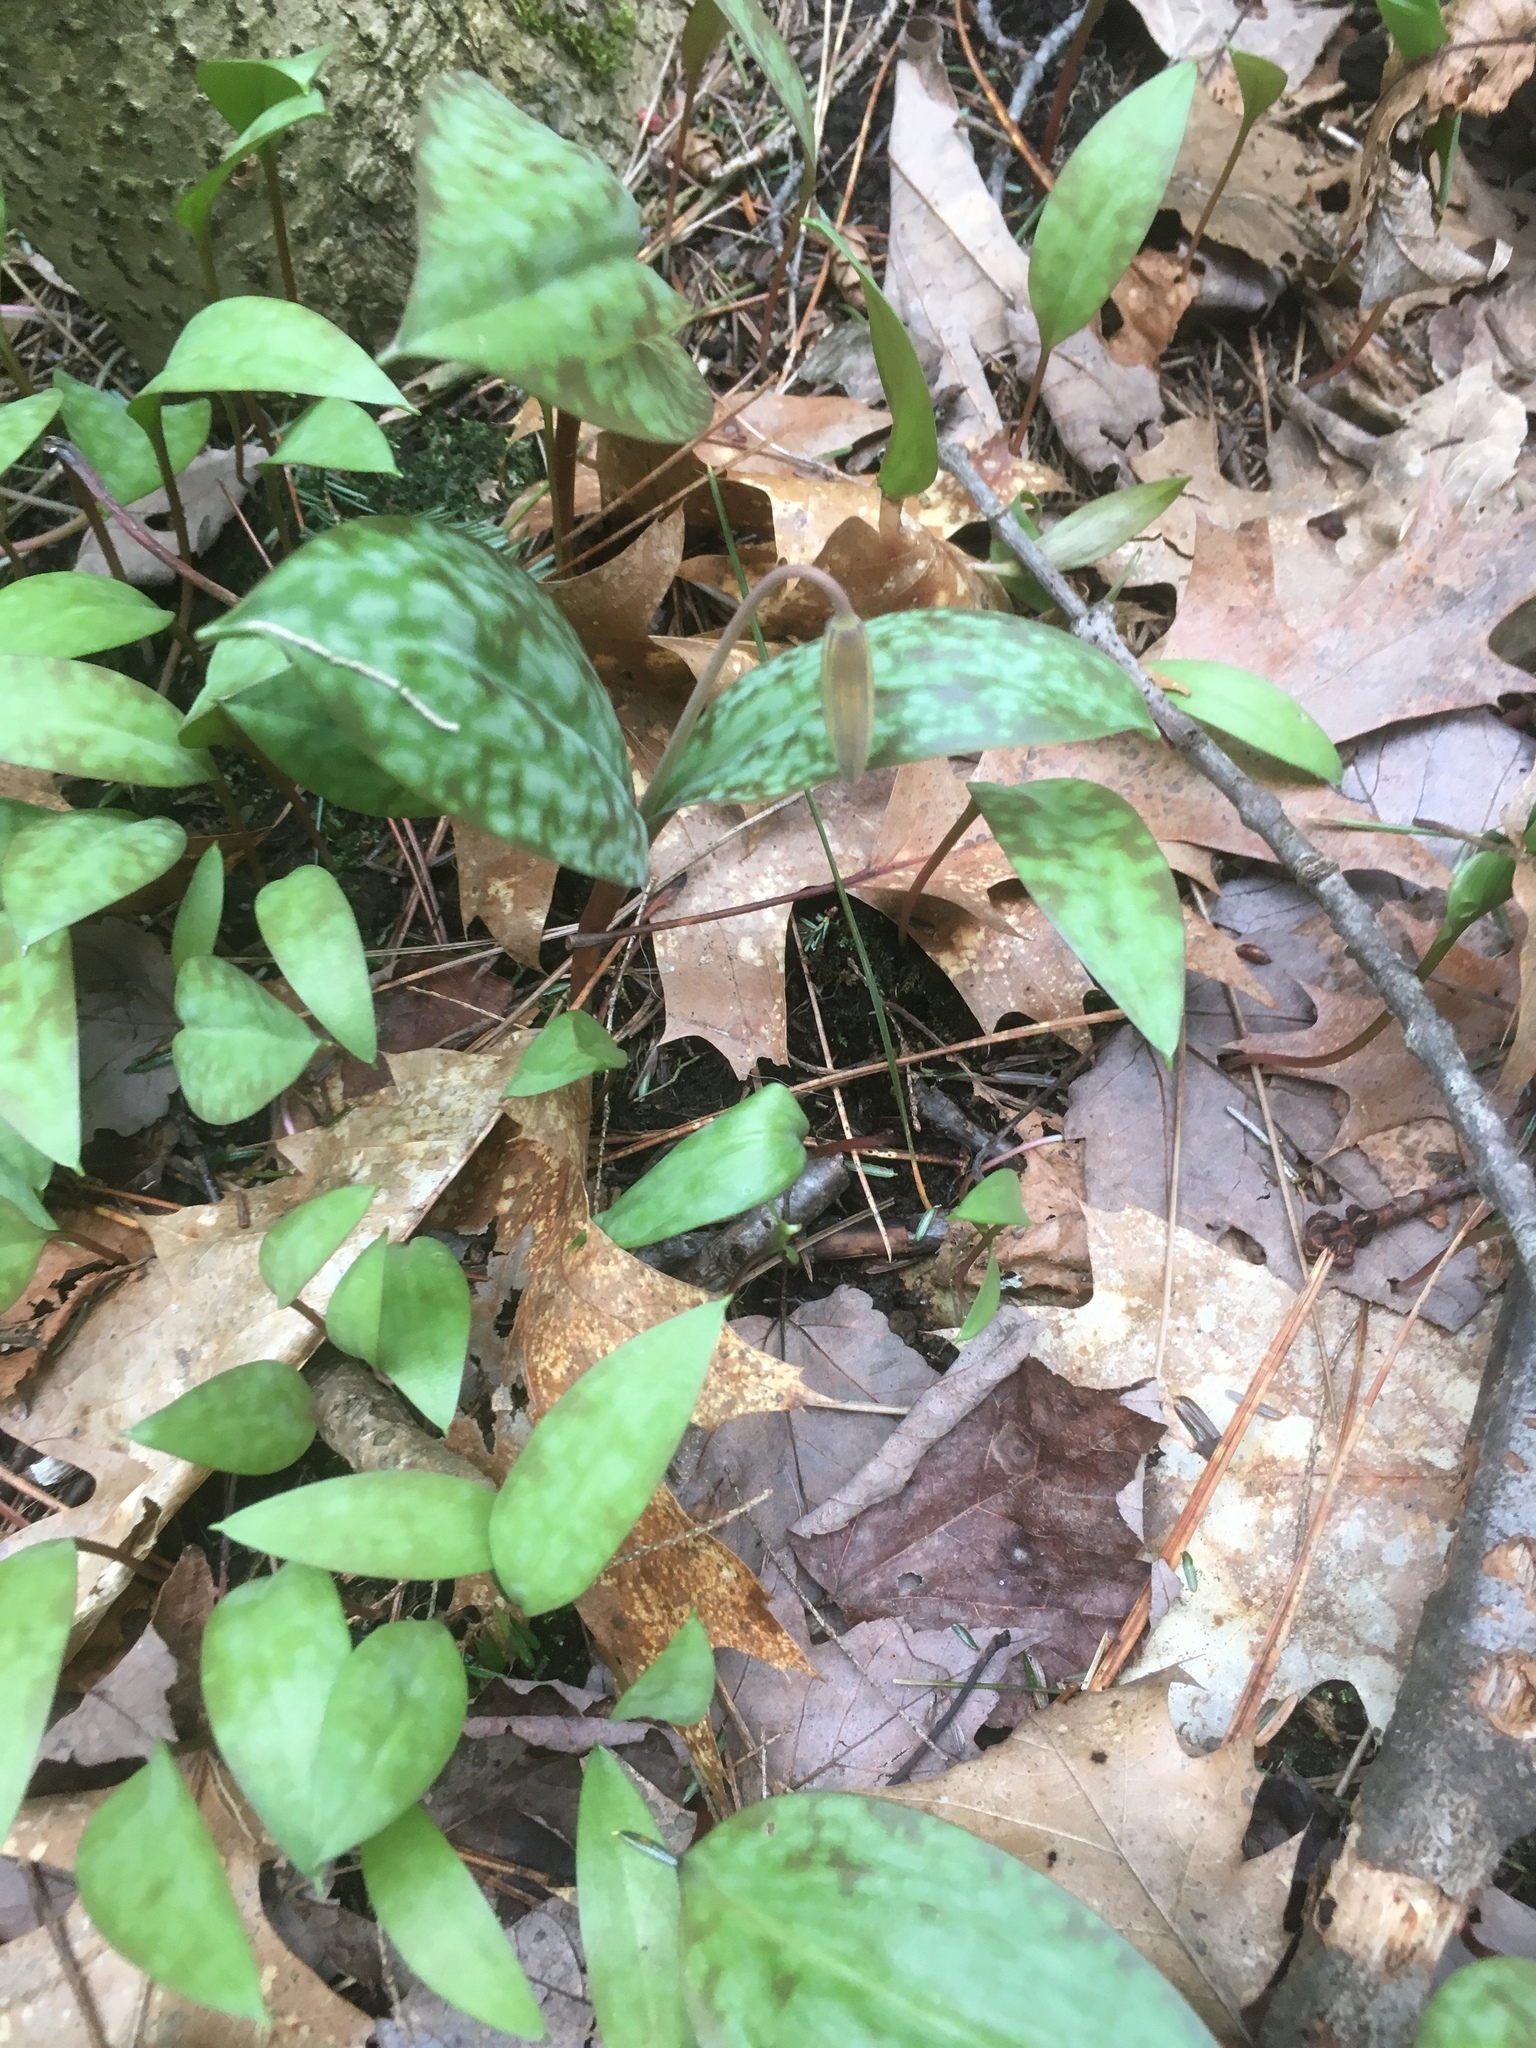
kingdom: Plantae
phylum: Tracheophyta
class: Liliopsida
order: Liliales
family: Liliaceae
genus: Erythronium
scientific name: Erythronium americanum
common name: Yellow adder's-tongue
